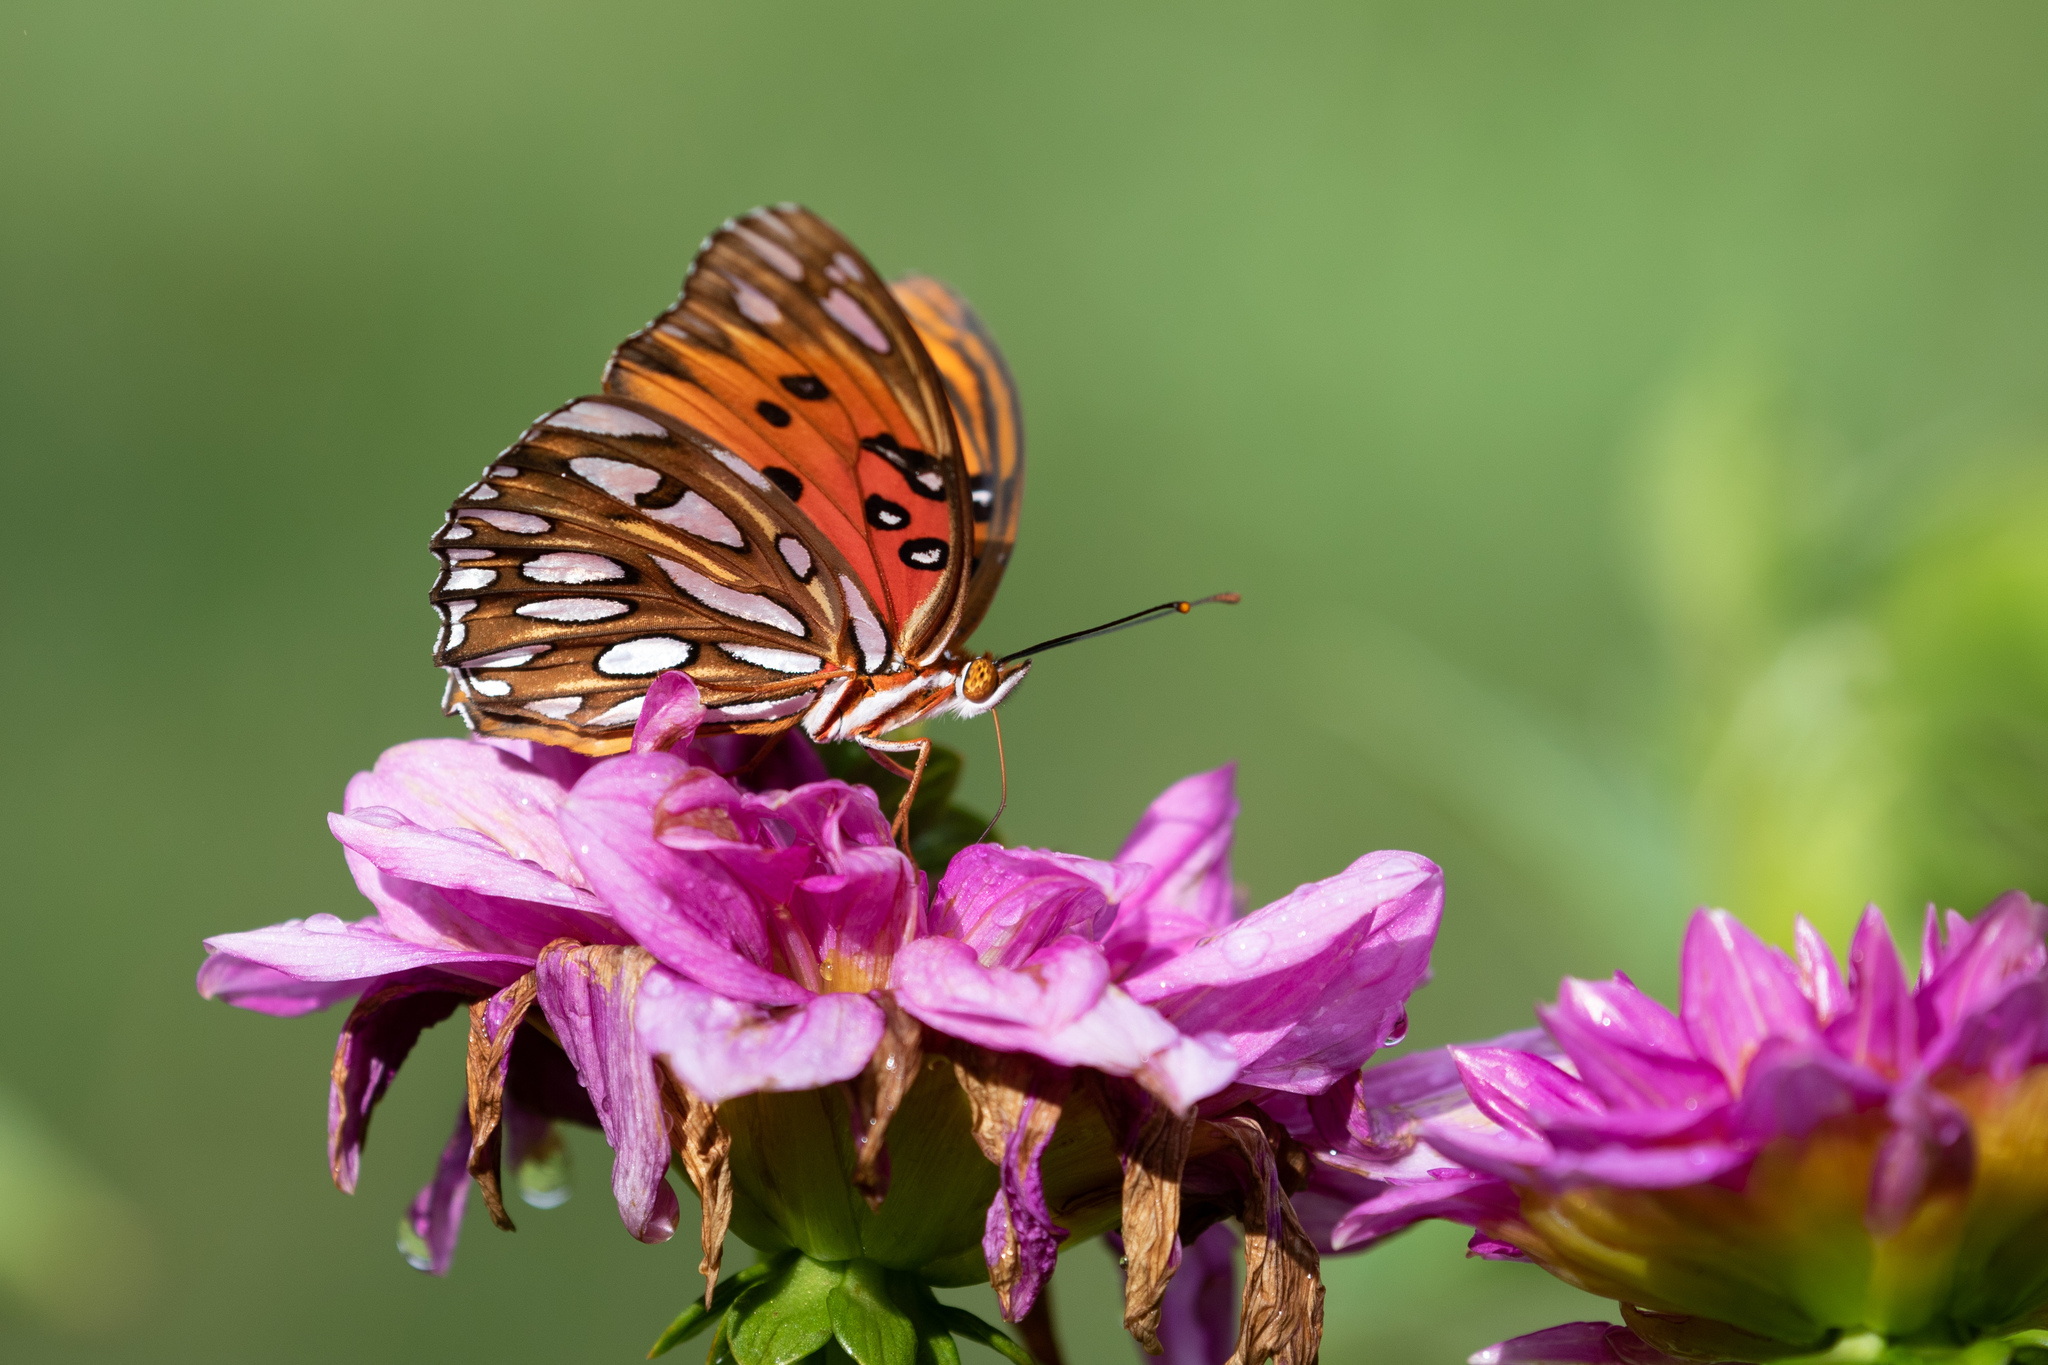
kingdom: Animalia
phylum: Arthropoda
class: Insecta
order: Lepidoptera
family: Nymphalidae
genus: Dione
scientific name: Dione vanillae
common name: Gulf fritillary
